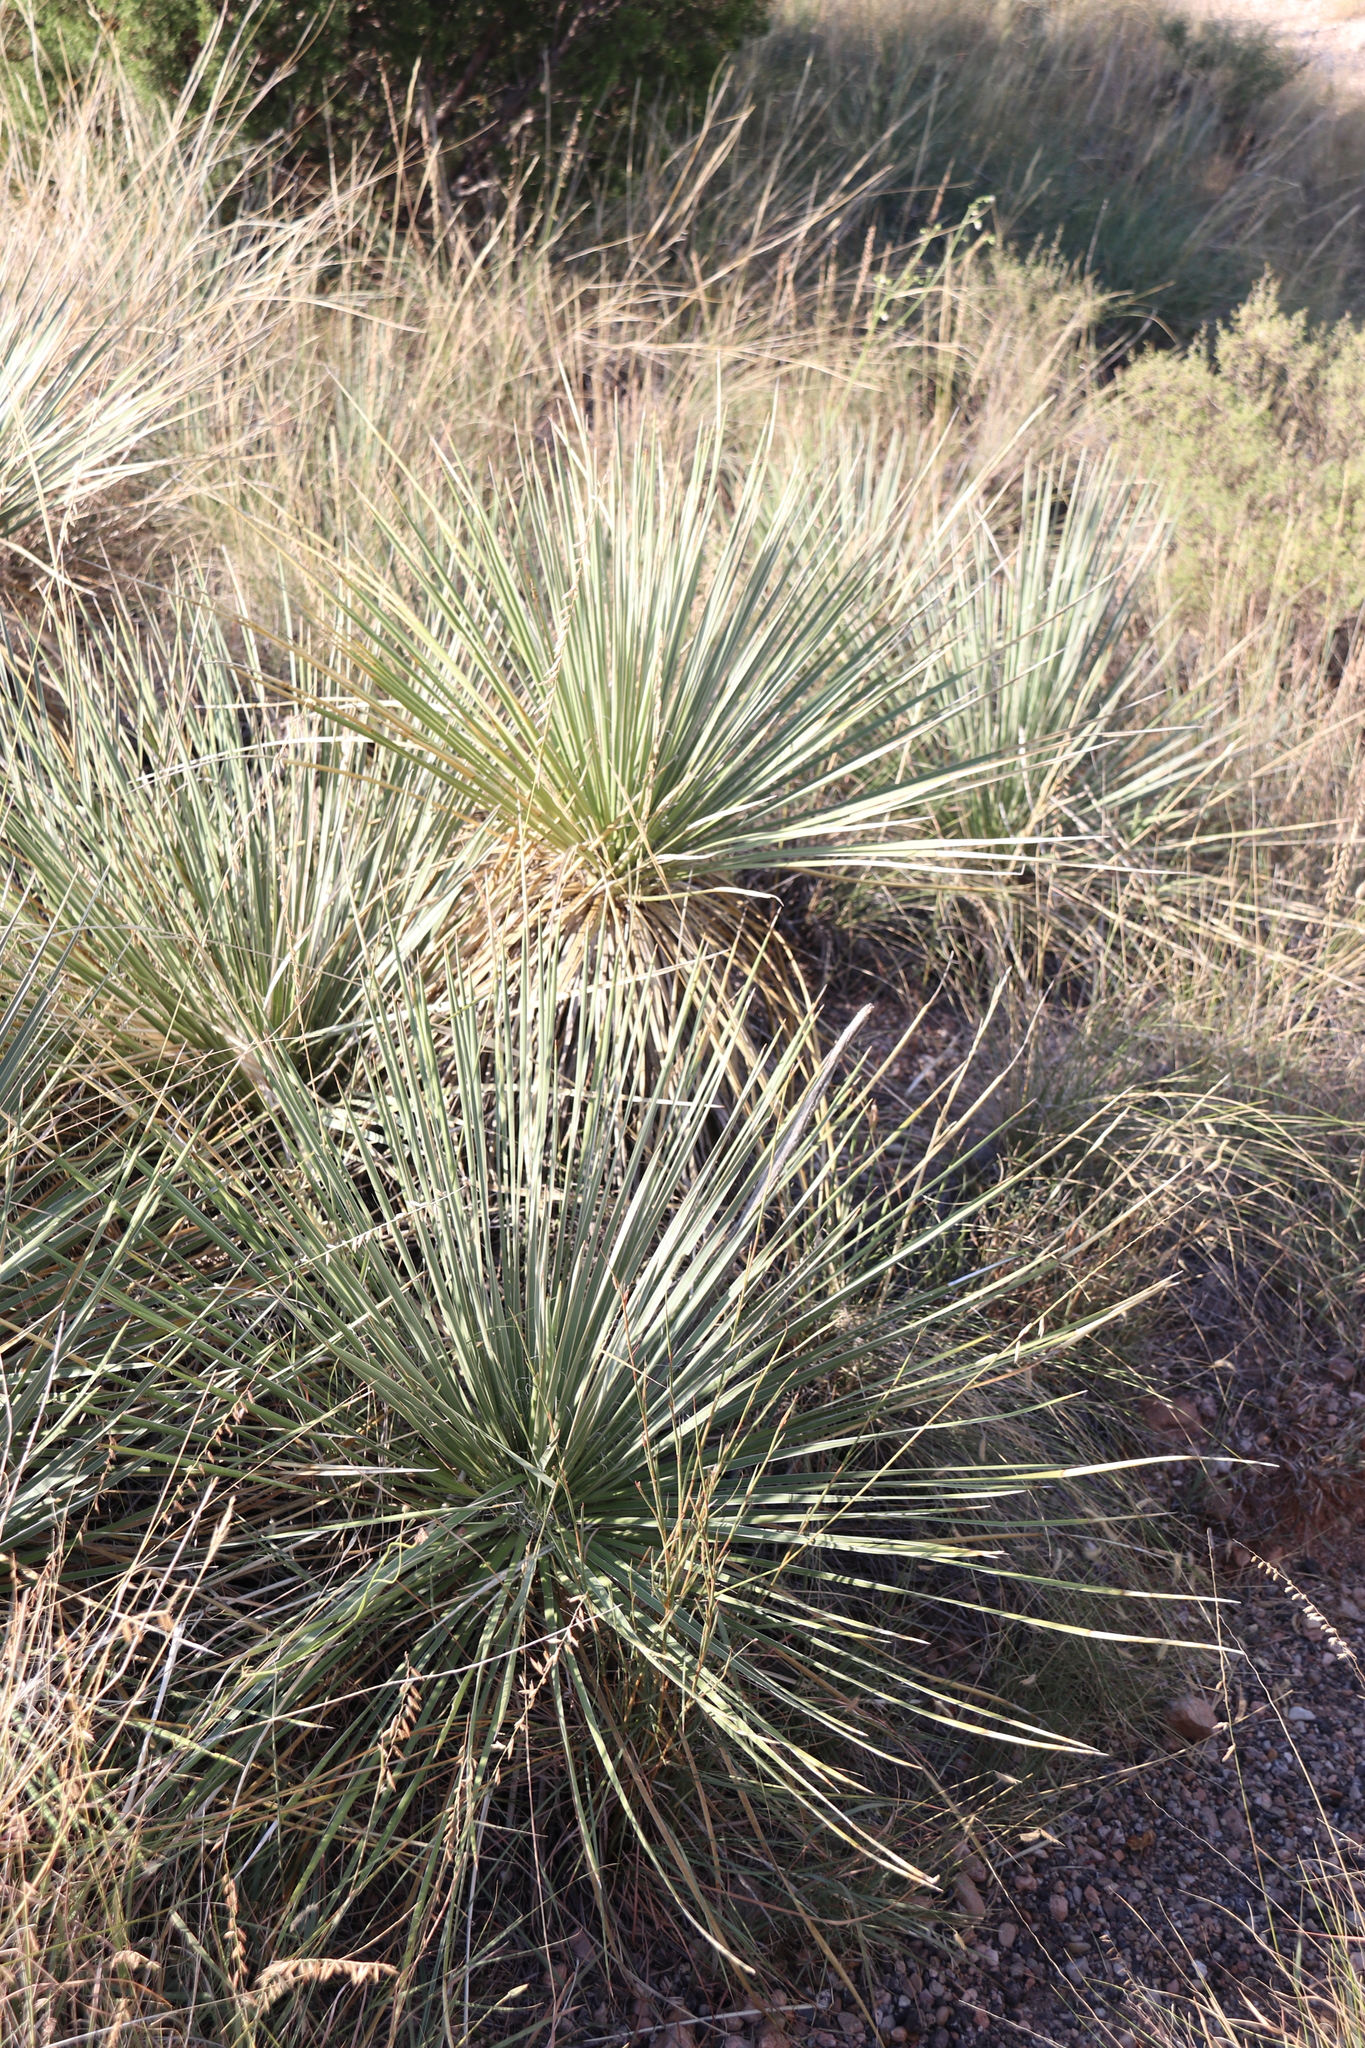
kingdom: Plantae
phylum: Tracheophyta
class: Liliopsida
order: Asparagales
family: Asparagaceae
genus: Yucca
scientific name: Yucca glauca
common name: Great plains yucca
